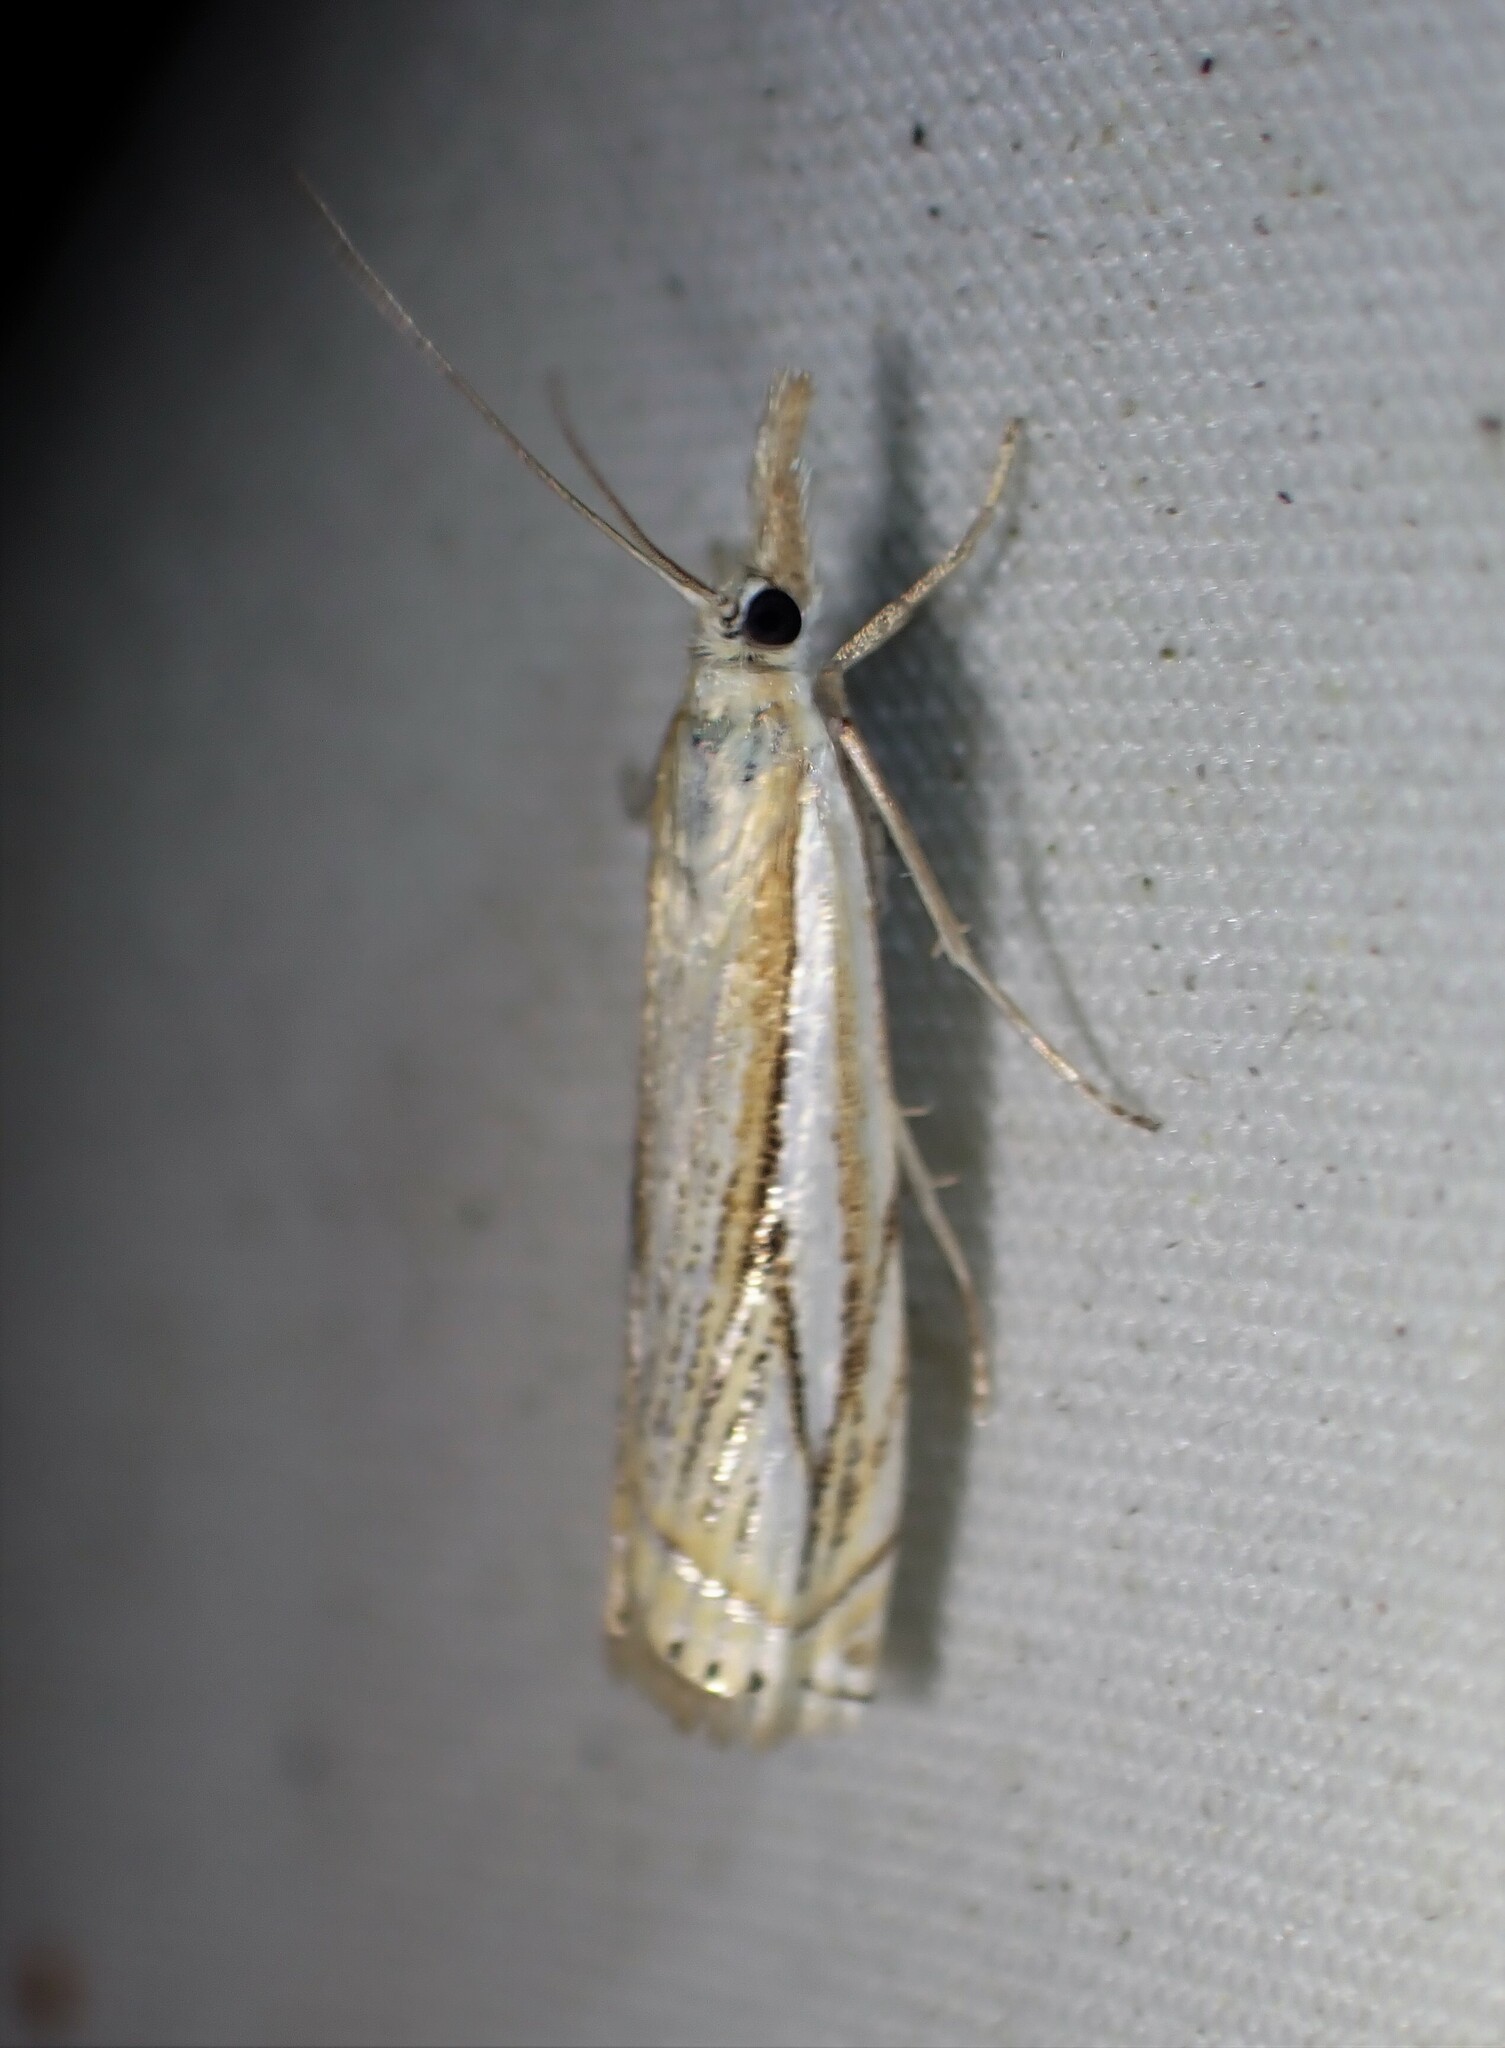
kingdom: Animalia
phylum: Arthropoda
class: Insecta
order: Lepidoptera
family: Crambidae
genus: Crambus
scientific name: Crambus saltuellus
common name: Pasture grass-veneer
